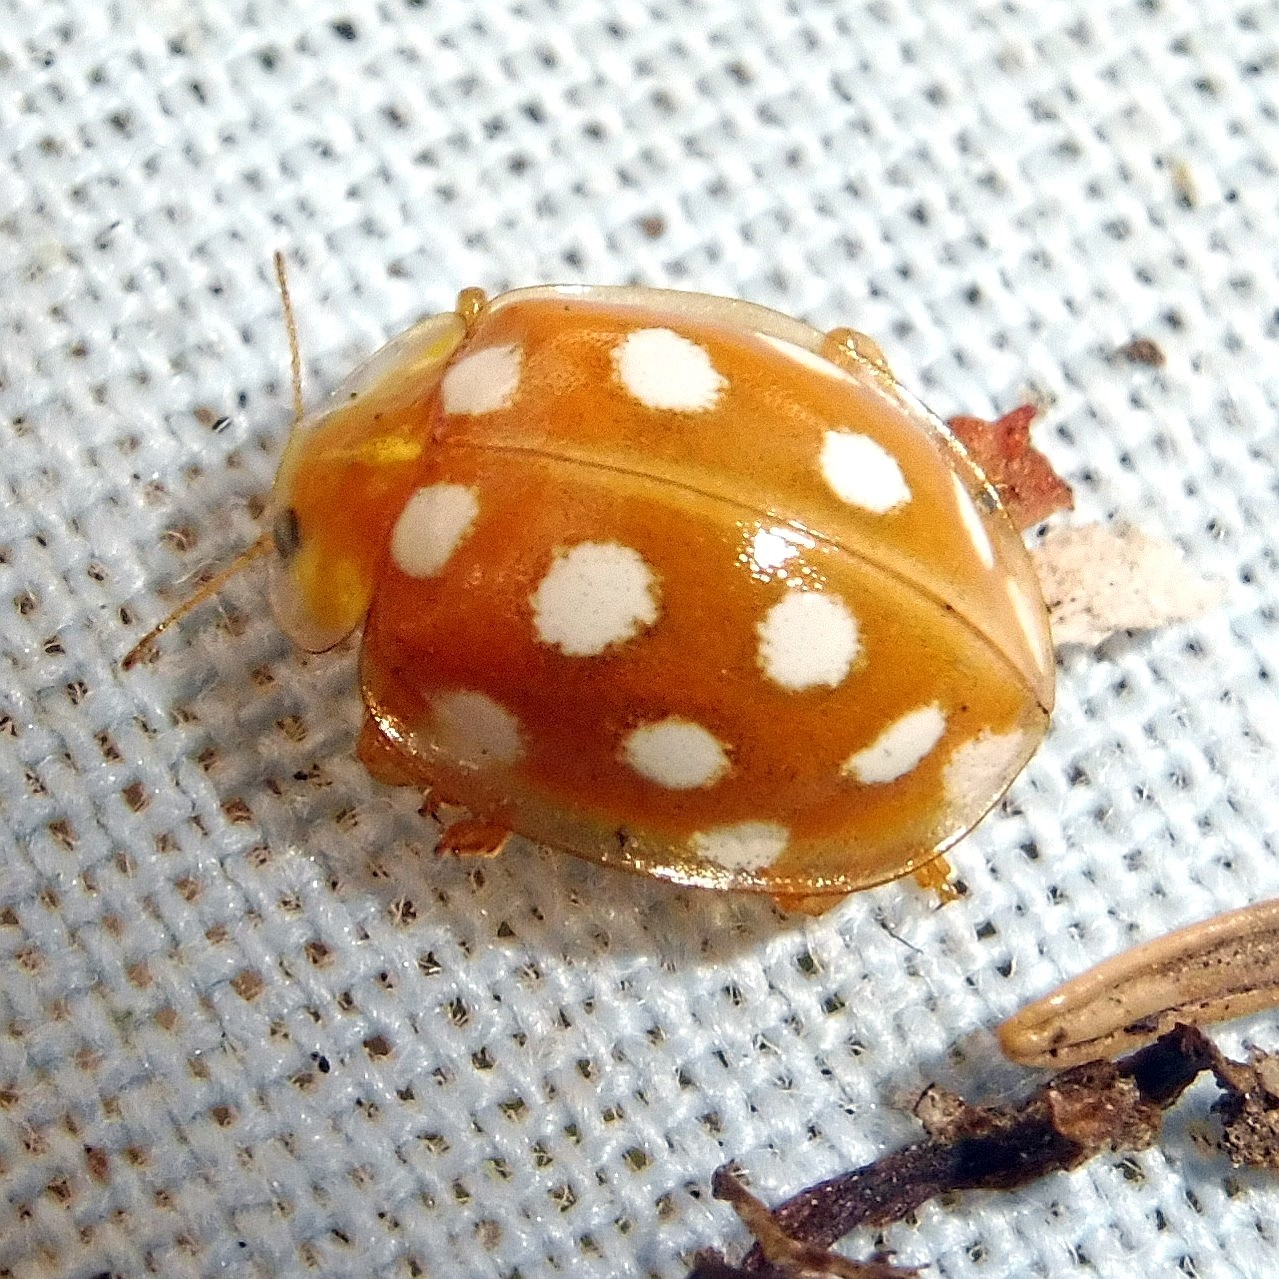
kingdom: Animalia
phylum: Arthropoda
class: Insecta
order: Coleoptera
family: Coccinellidae
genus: Halyzia
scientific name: Halyzia sedecimguttata
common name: Orange ladybird
